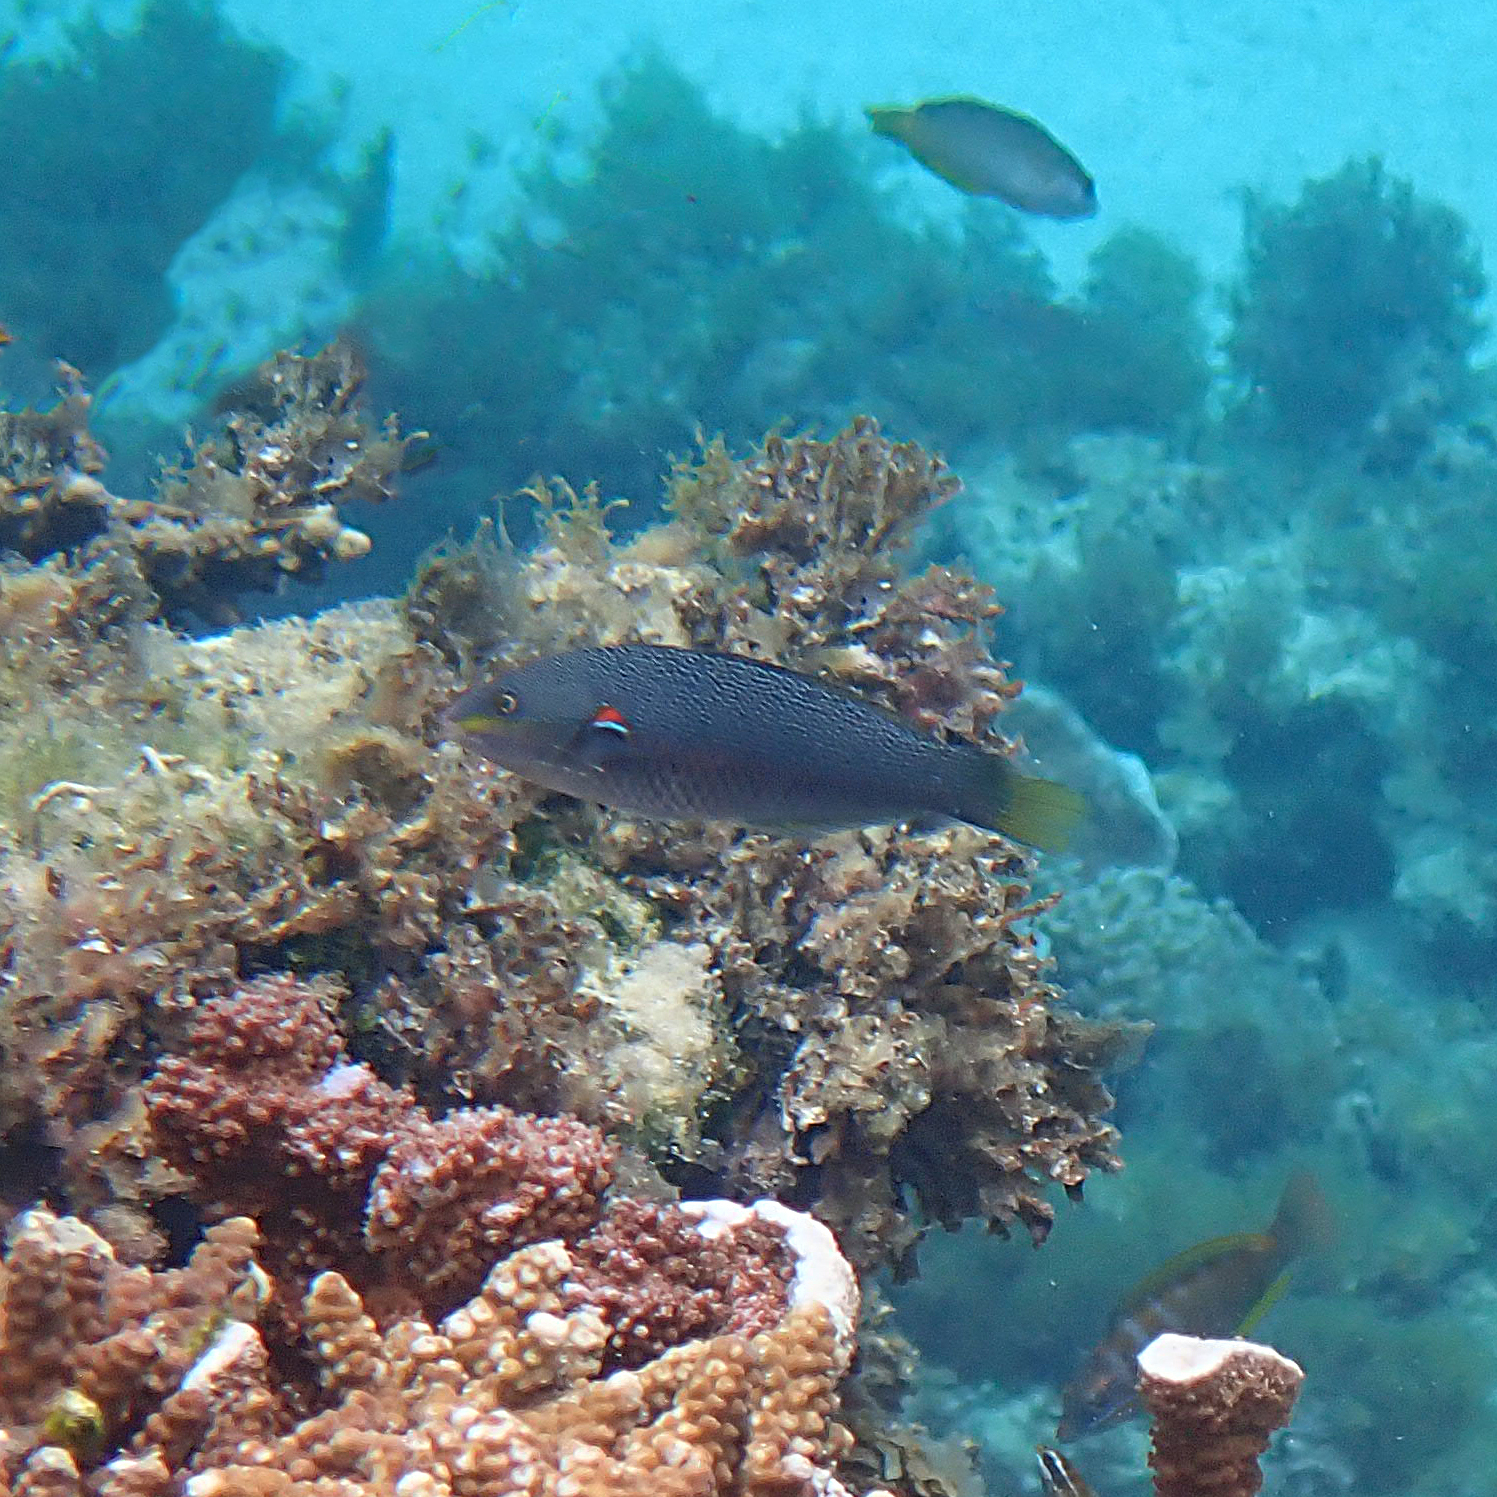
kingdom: Animalia
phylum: Chordata
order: Perciformes
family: Labridae
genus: Stethojulis
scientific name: Stethojulis bandanensis
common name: Red shoulder wrasse
